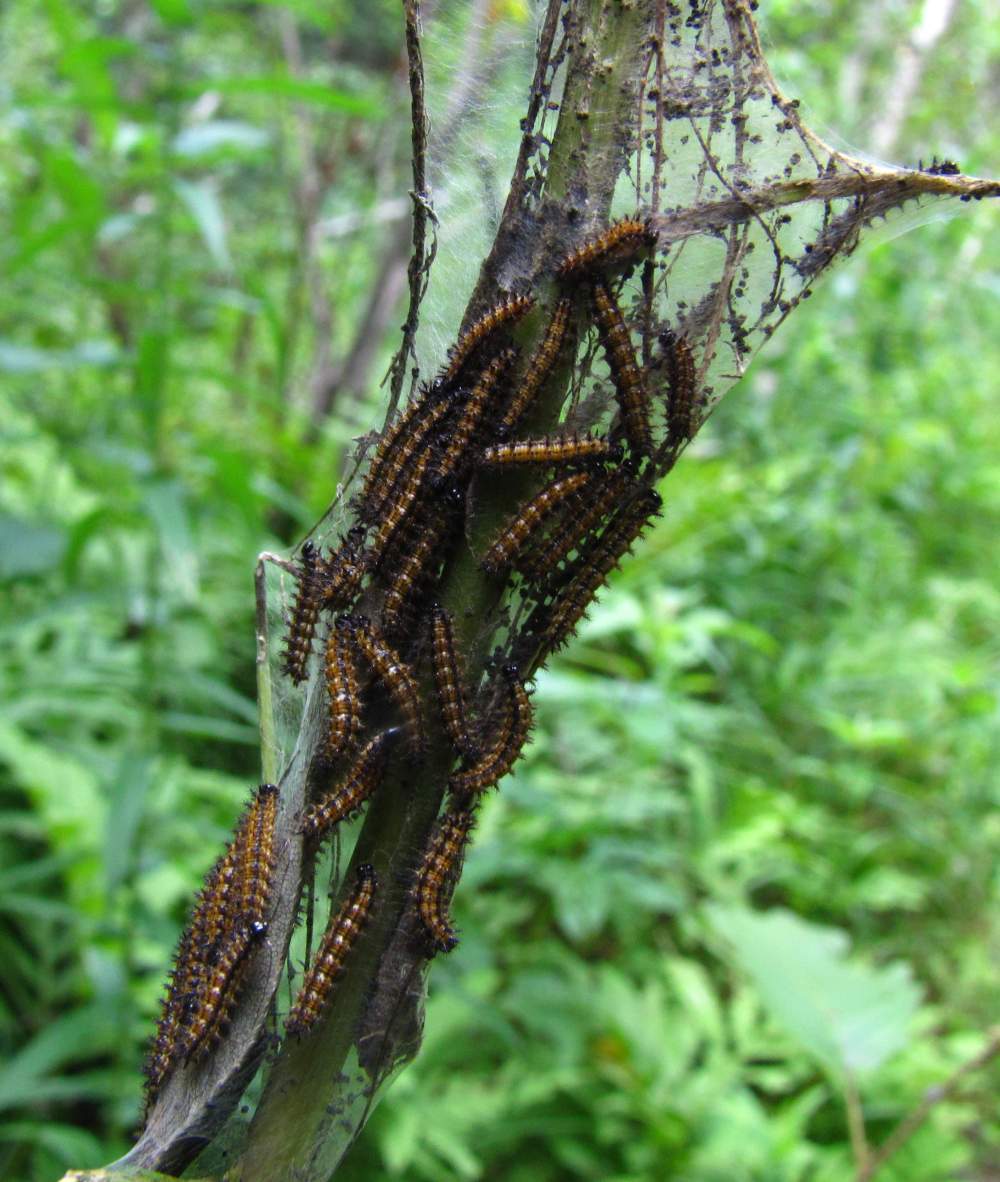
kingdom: Animalia
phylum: Arthropoda
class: Insecta
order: Lepidoptera
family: Nymphalidae
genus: Euphydryas
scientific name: Euphydryas phaeton
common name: Baltimore checkerspot
